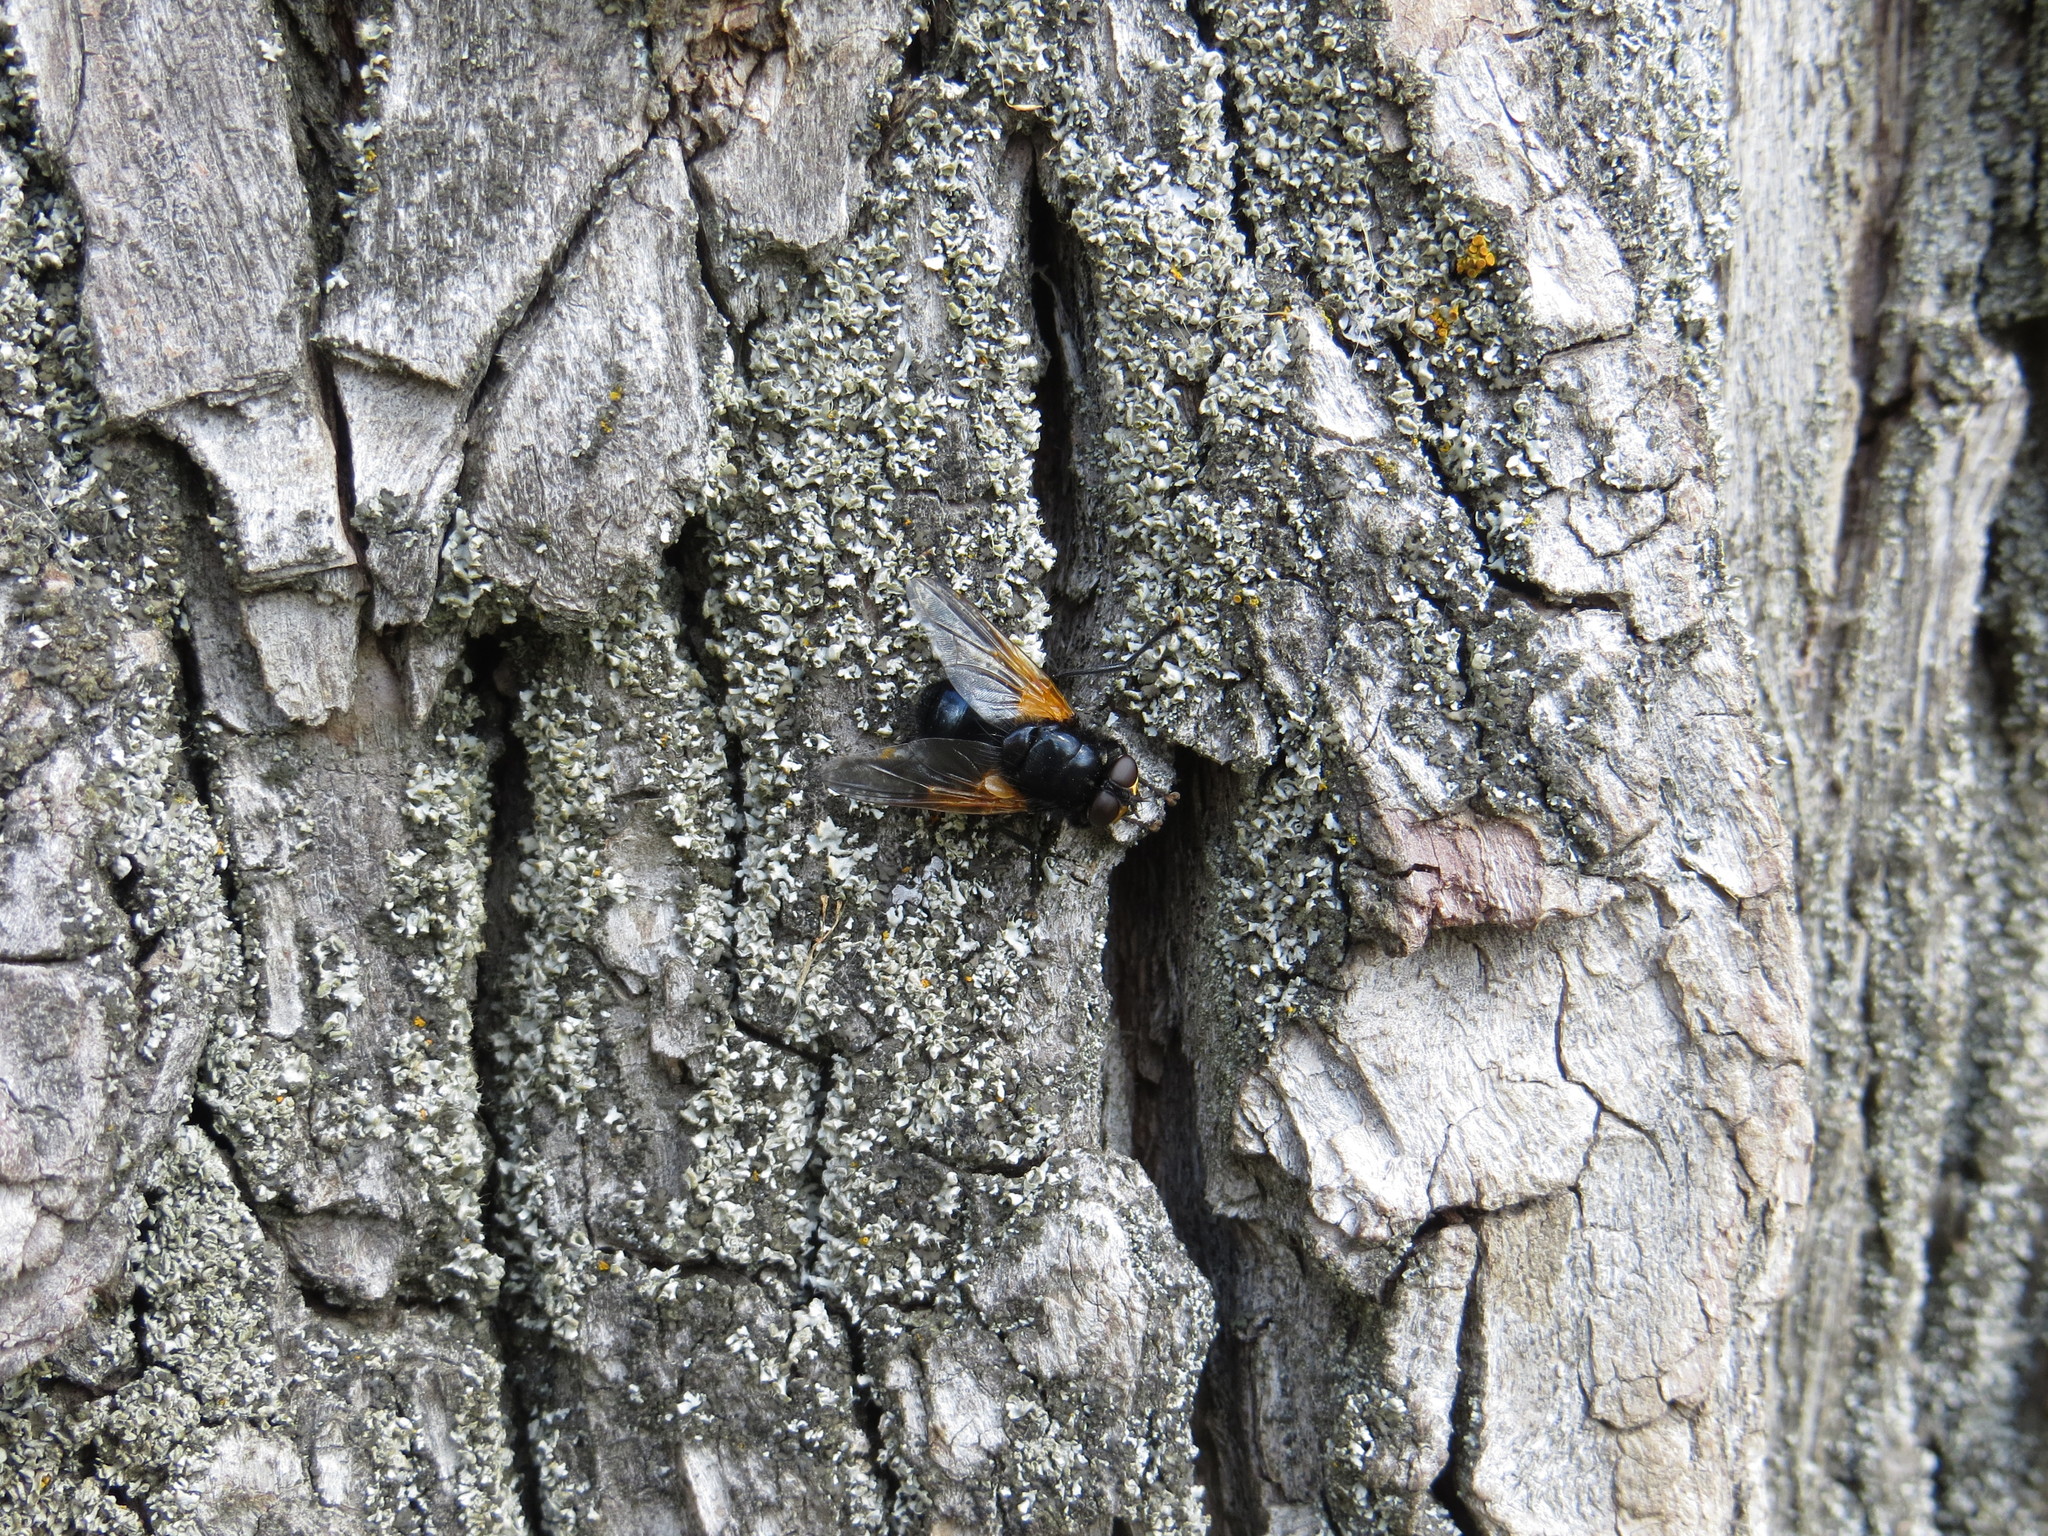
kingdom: Animalia
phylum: Arthropoda
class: Insecta
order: Diptera
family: Muscidae
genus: Mesembrina
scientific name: Mesembrina meridiana
